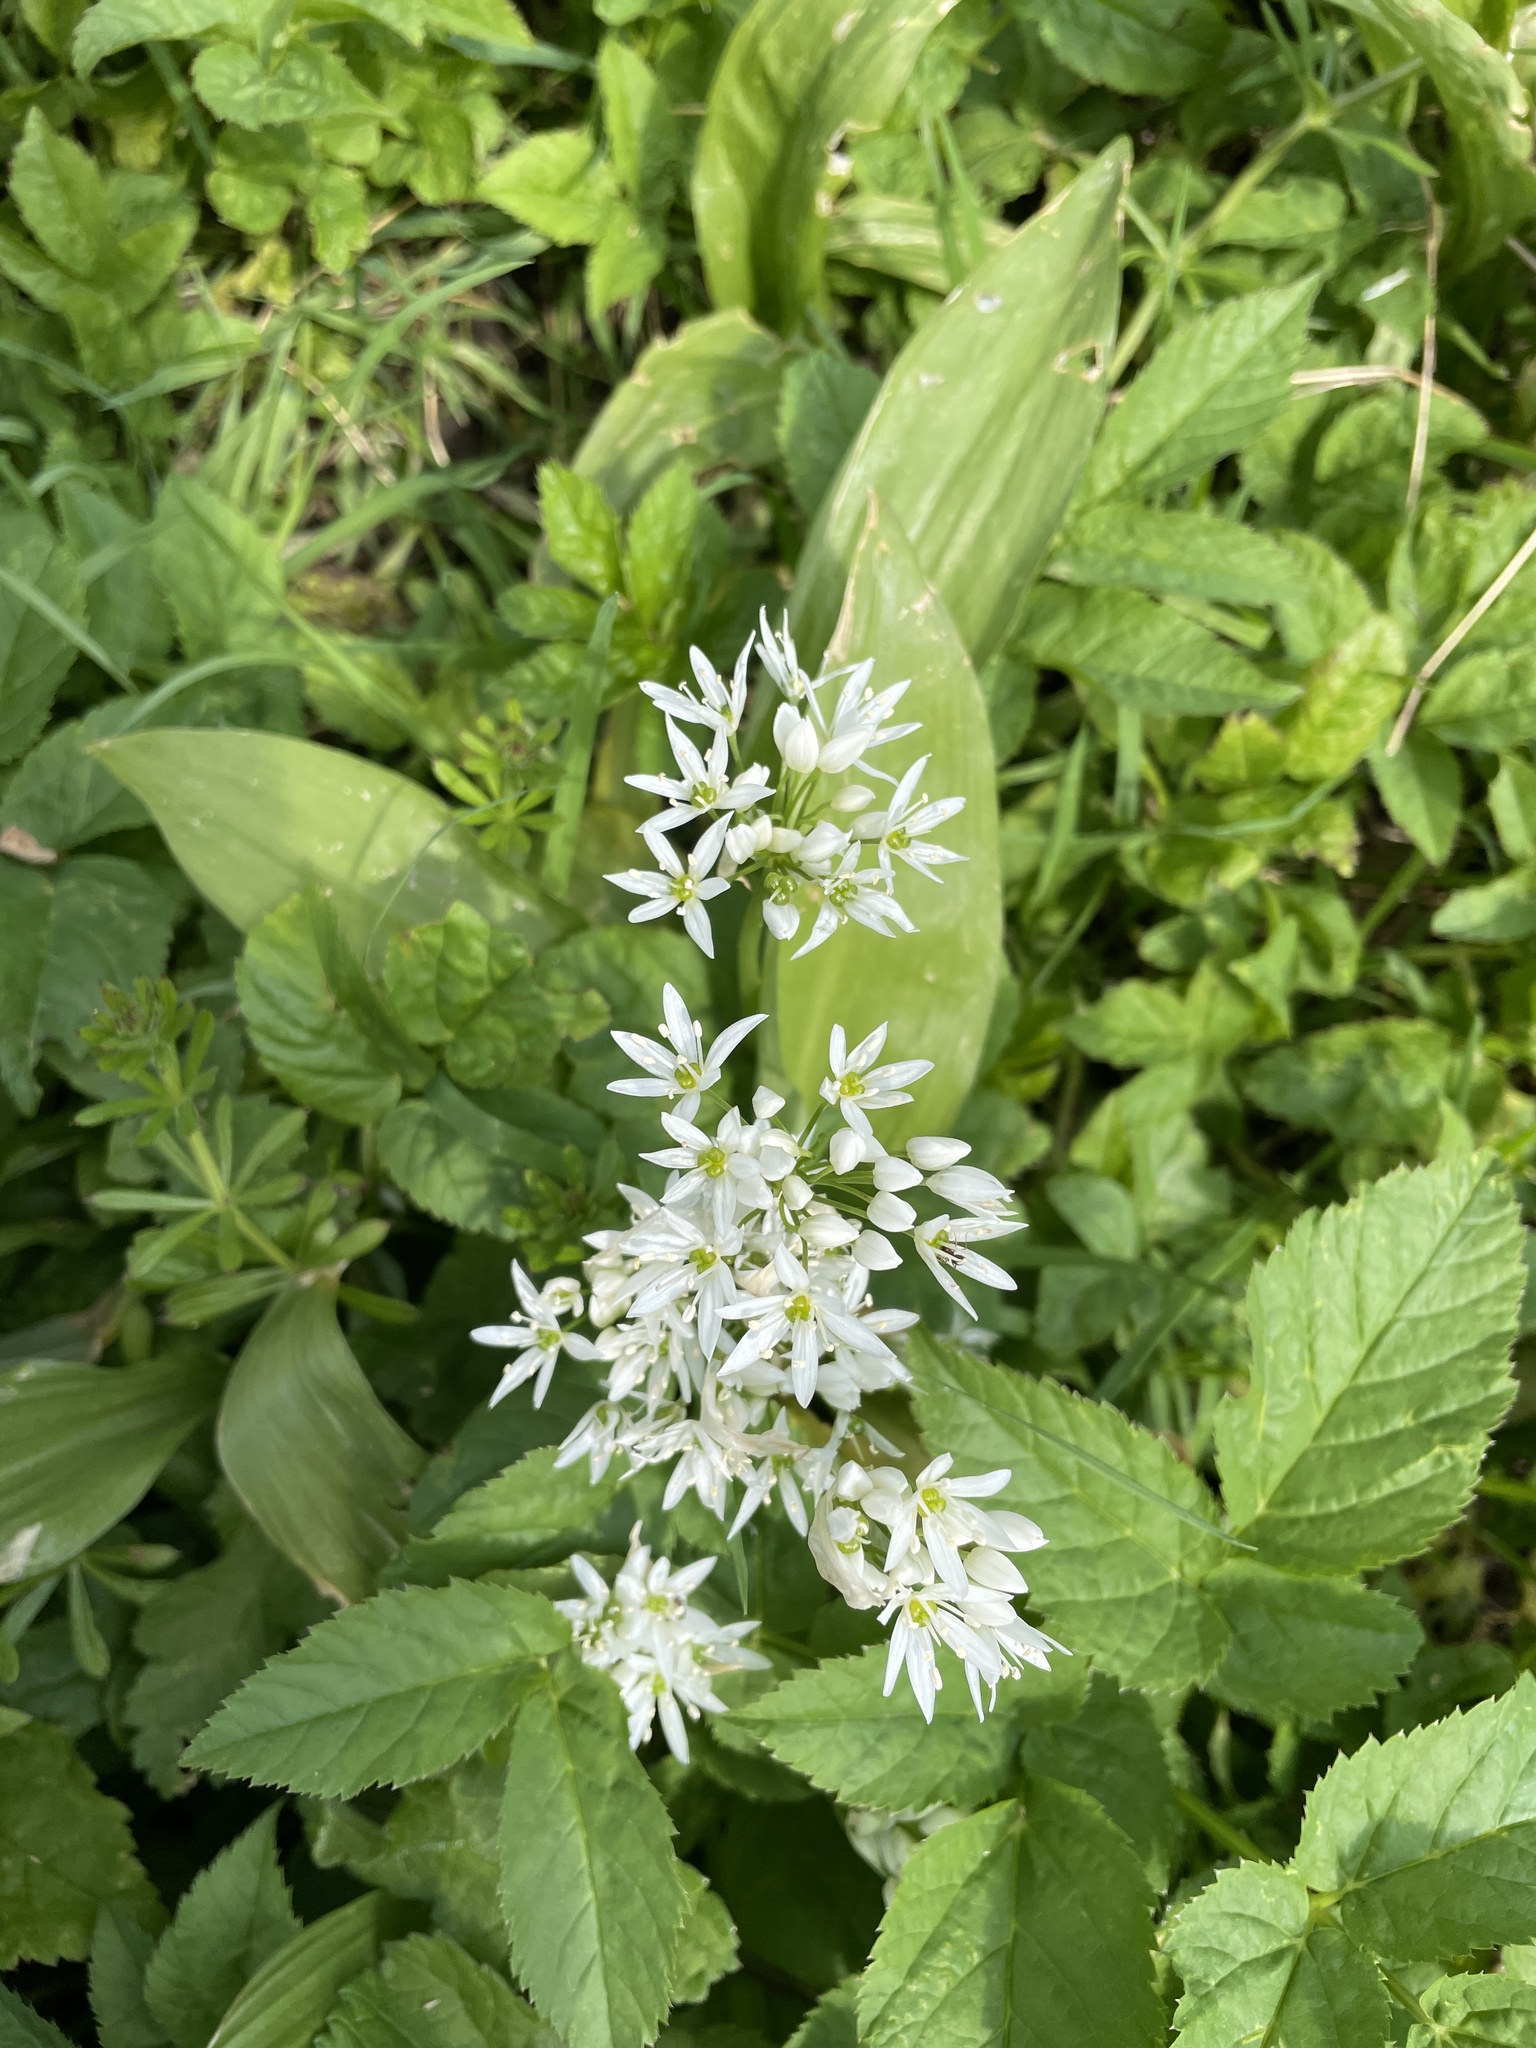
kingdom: Plantae
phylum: Tracheophyta
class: Liliopsida
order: Asparagales
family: Amaryllidaceae
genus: Allium
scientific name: Allium ursinum
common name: Ramsons
